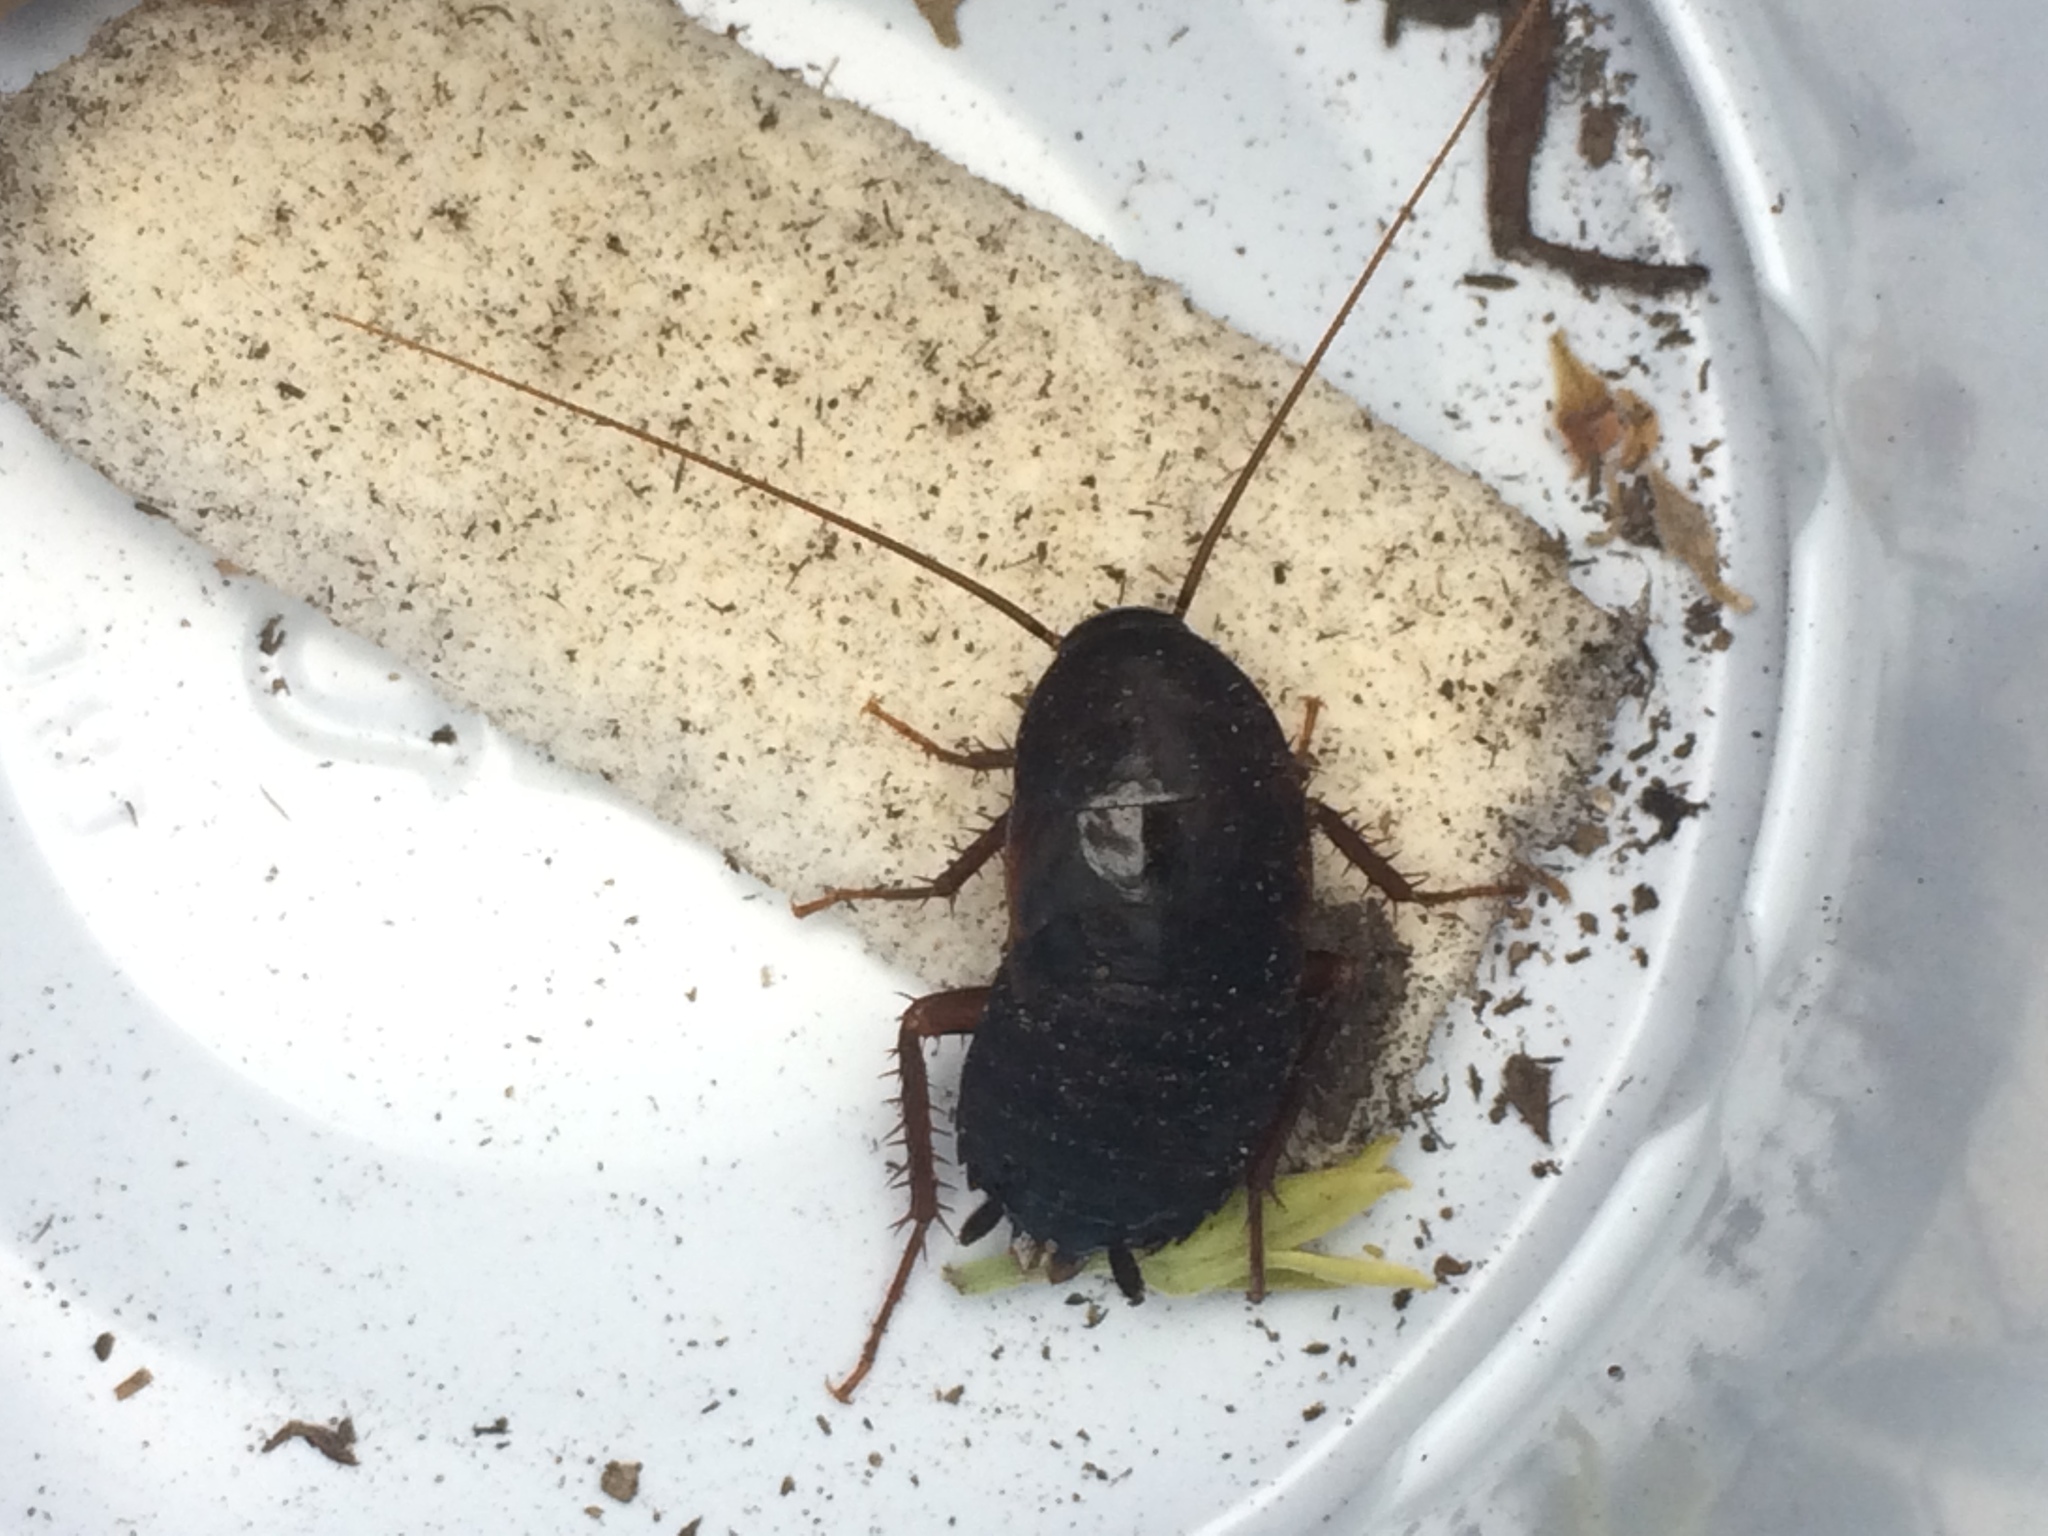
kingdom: Animalia
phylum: Arthropoda
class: Insecta
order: Blattodea
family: Blattidae
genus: Blatta
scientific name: Blatta orientalis
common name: Oriental cockroach
